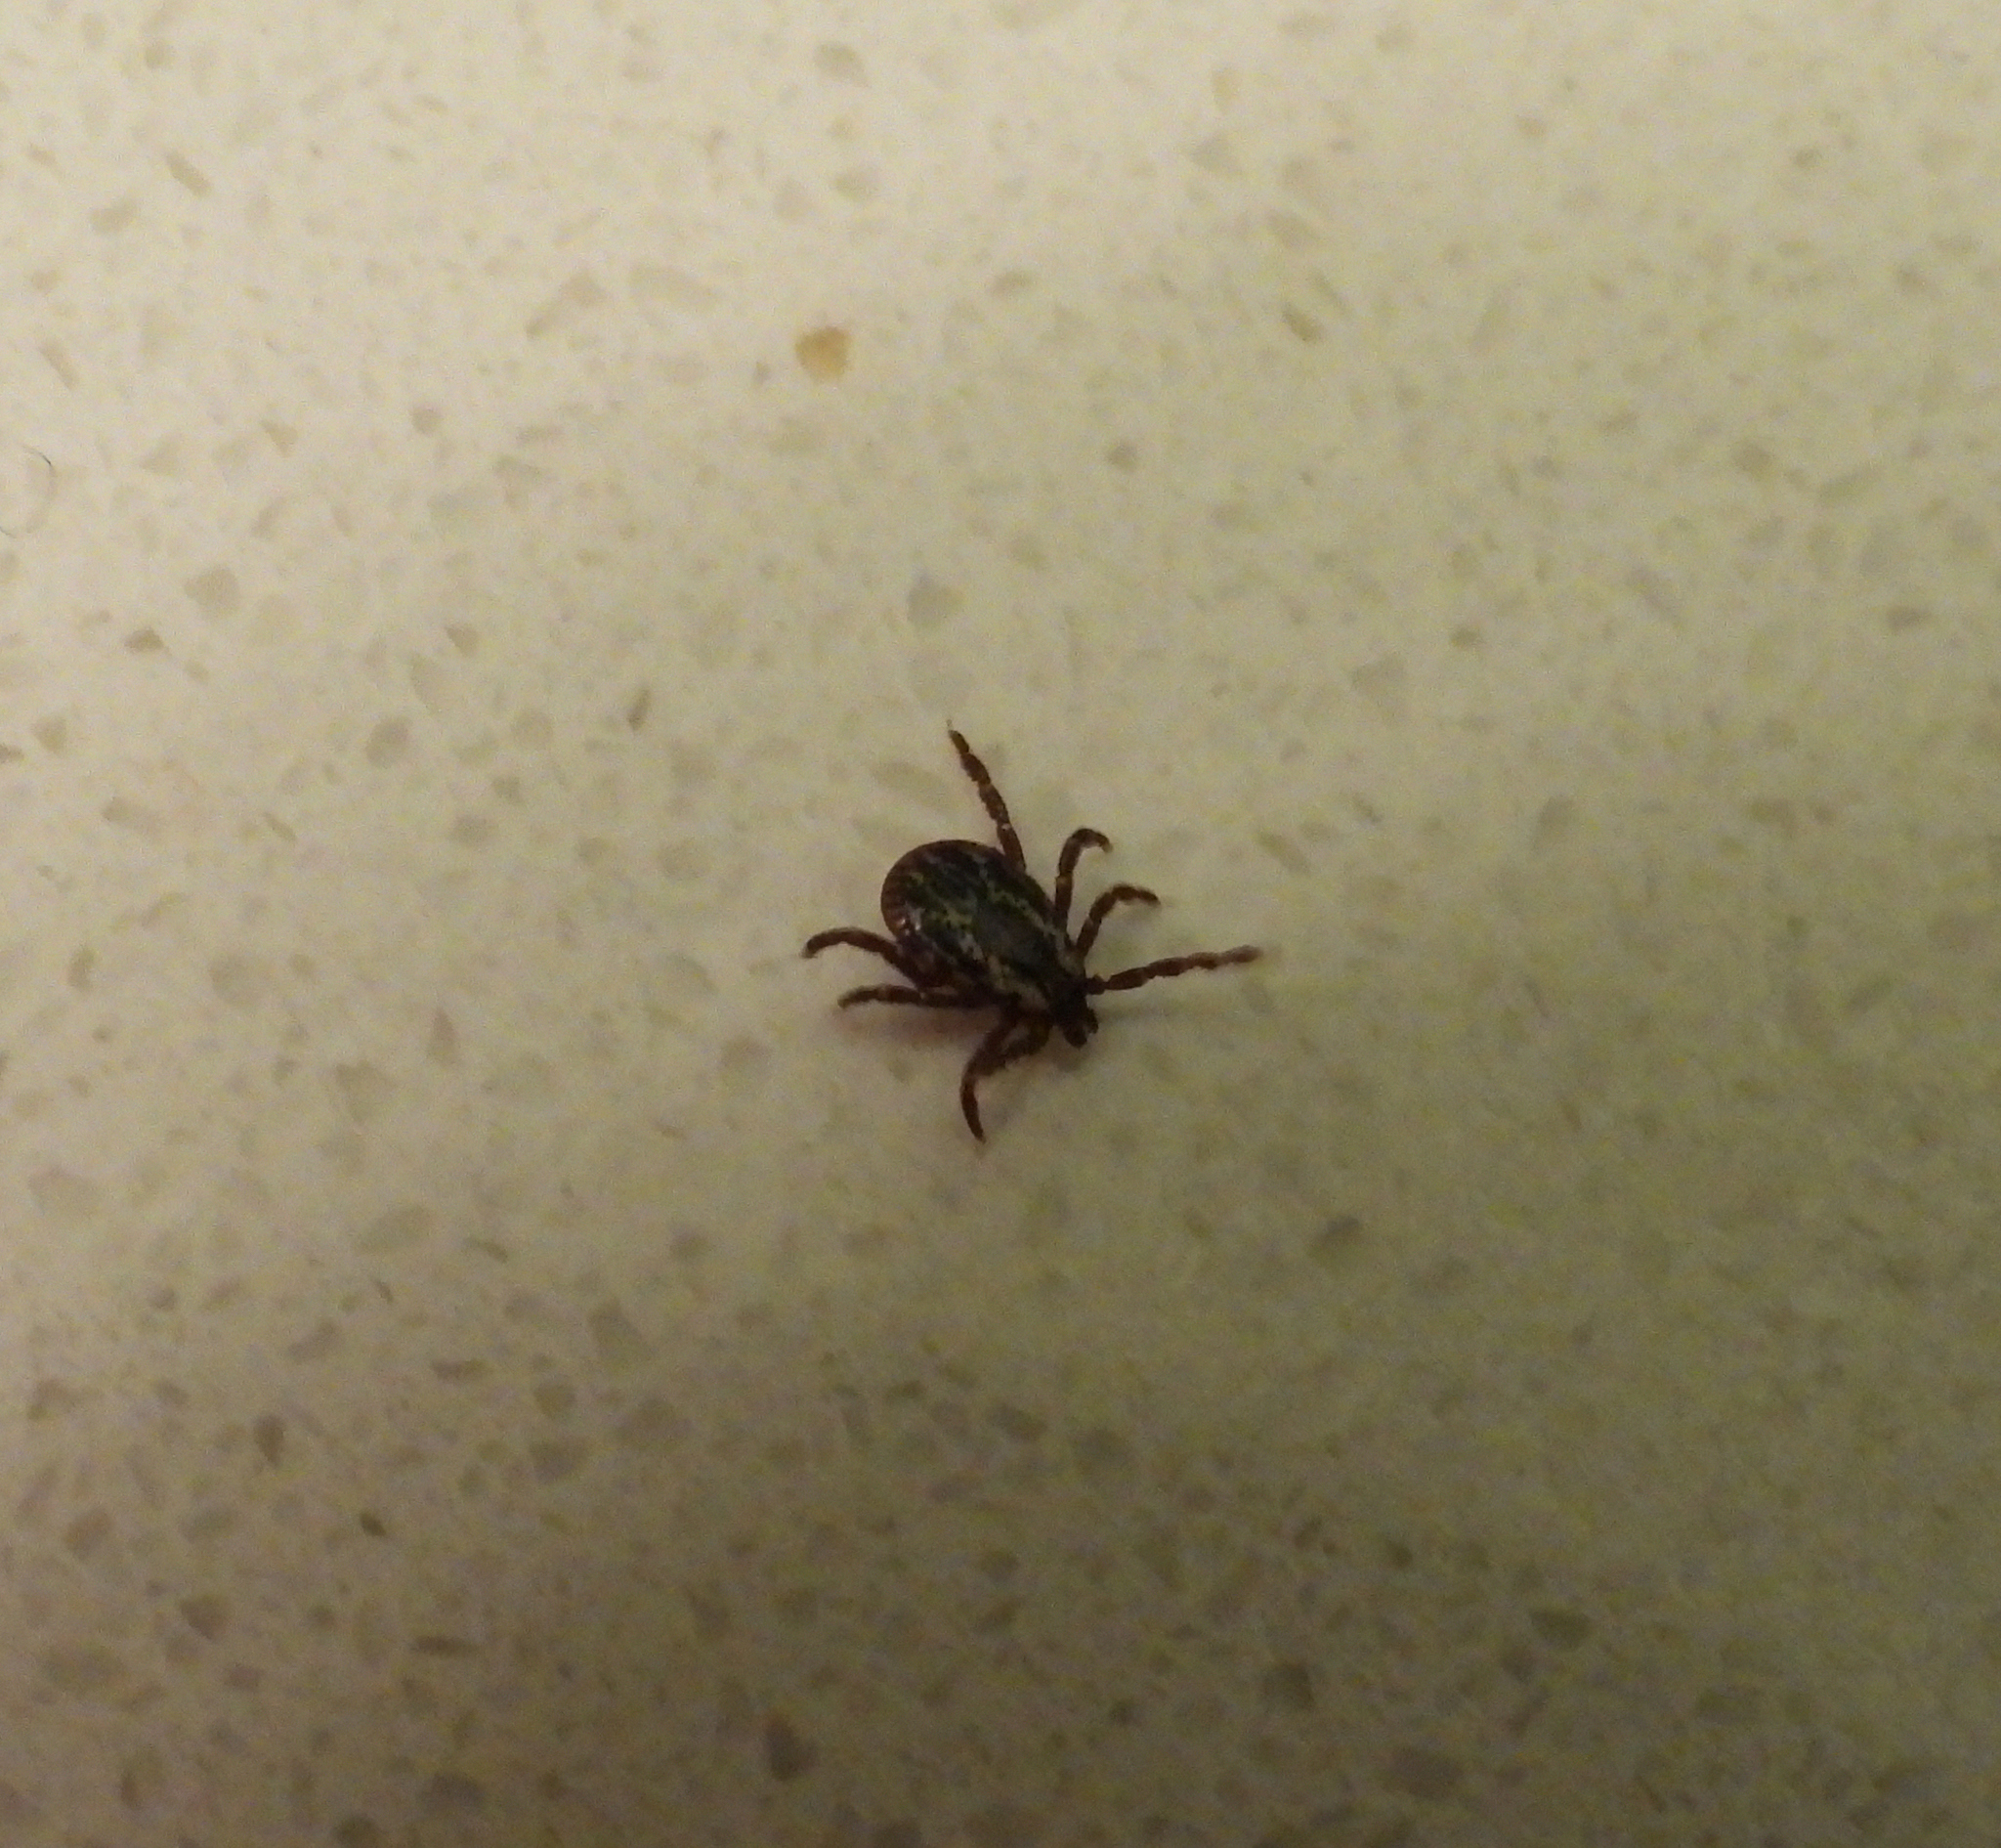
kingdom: Animalia
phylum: Arthropoda
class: Arachnida
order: Ixodida
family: Ixodidae
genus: Dermacentor
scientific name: Dermacentor variabilis
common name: American dog tick
